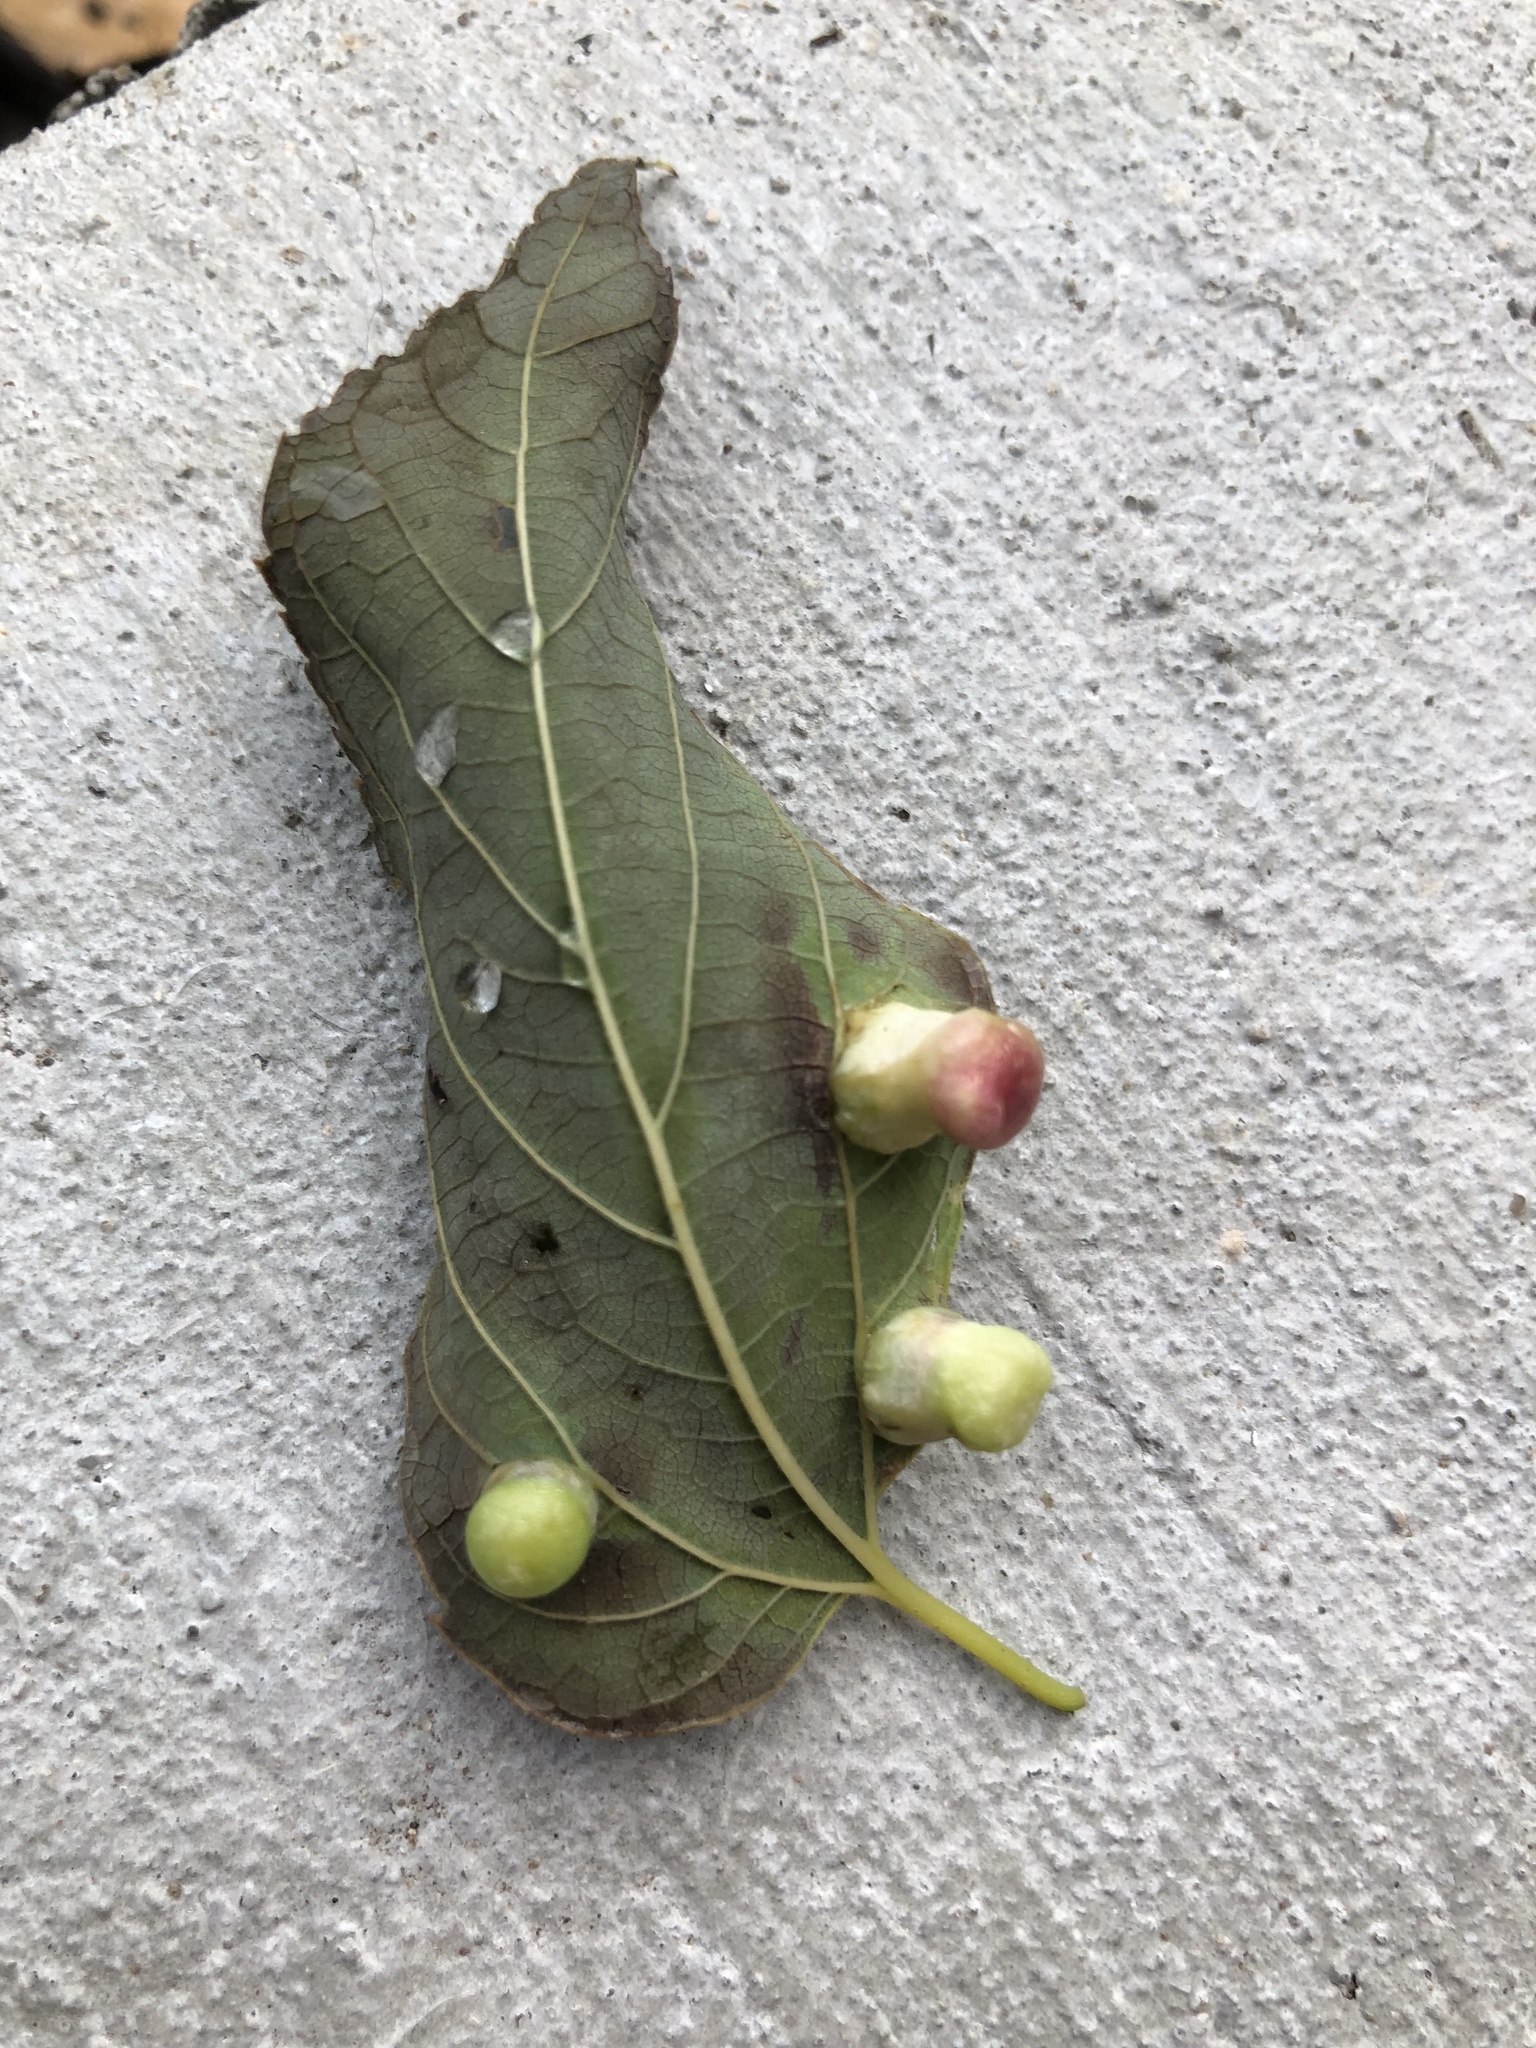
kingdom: Animalia
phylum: Arthropoda
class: Insecta
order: Hemiptera
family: Aphalaridae
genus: Pachypsylla
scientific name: Pachypsylla celtidismamma
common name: Hackberry nipplegall psyllid
